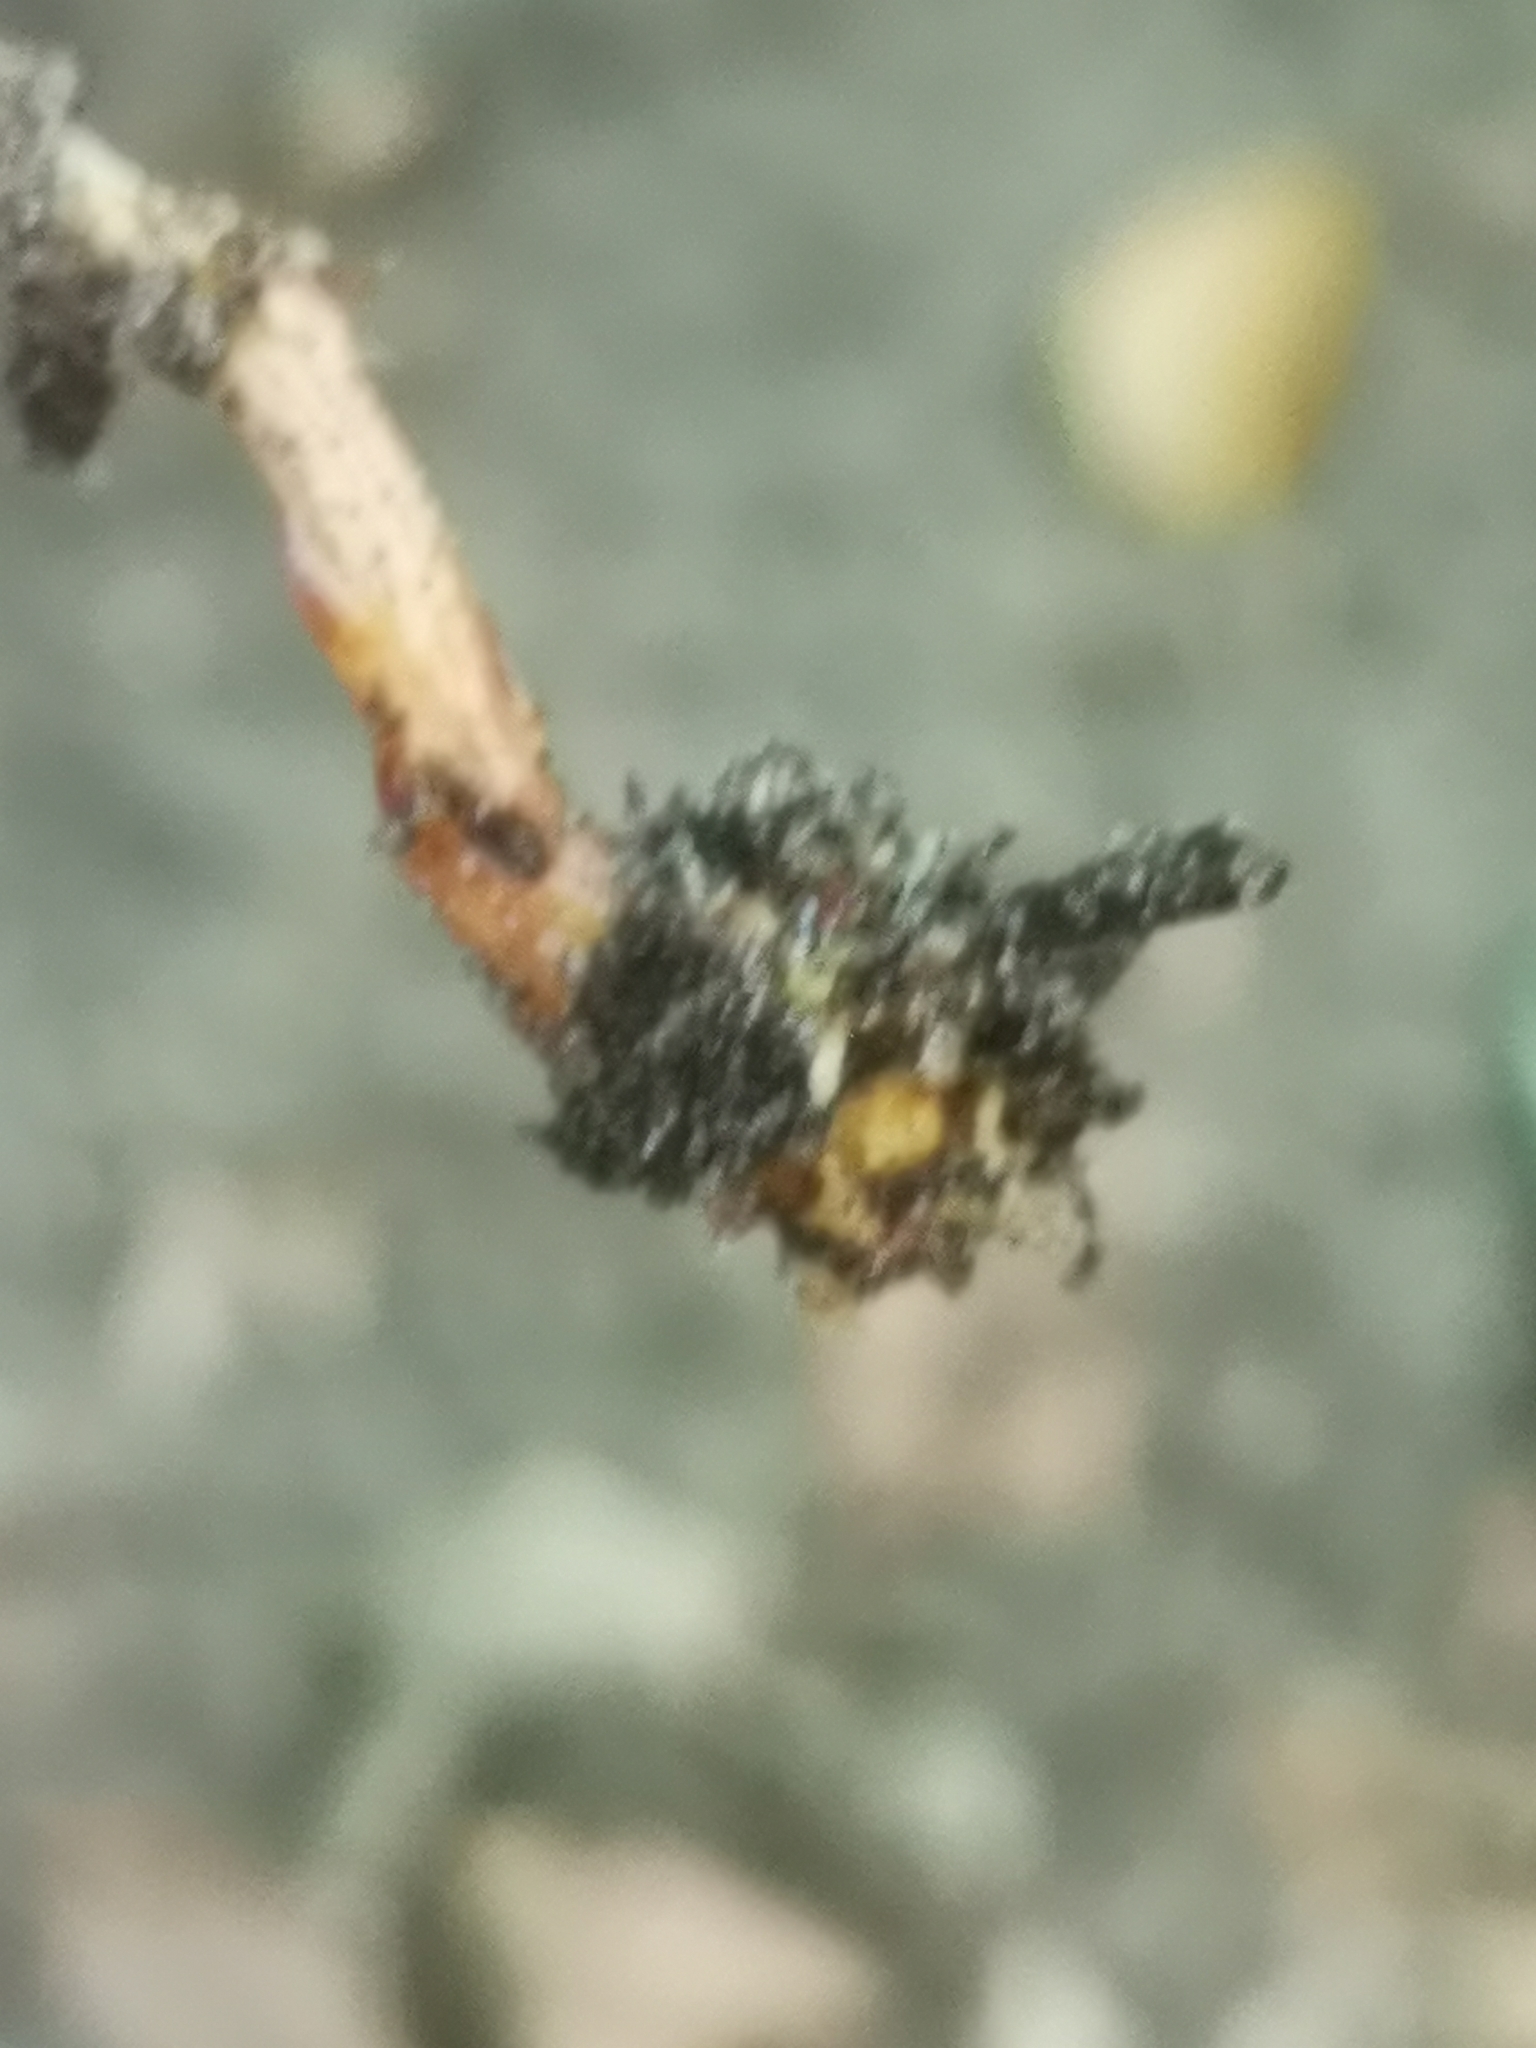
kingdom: Plantae
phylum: Tracheophyta
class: Magnoliopsida
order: Lamiales
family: Orobanchaceae
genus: Epifagus
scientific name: Epifagus virginiana
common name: Beechdrops
